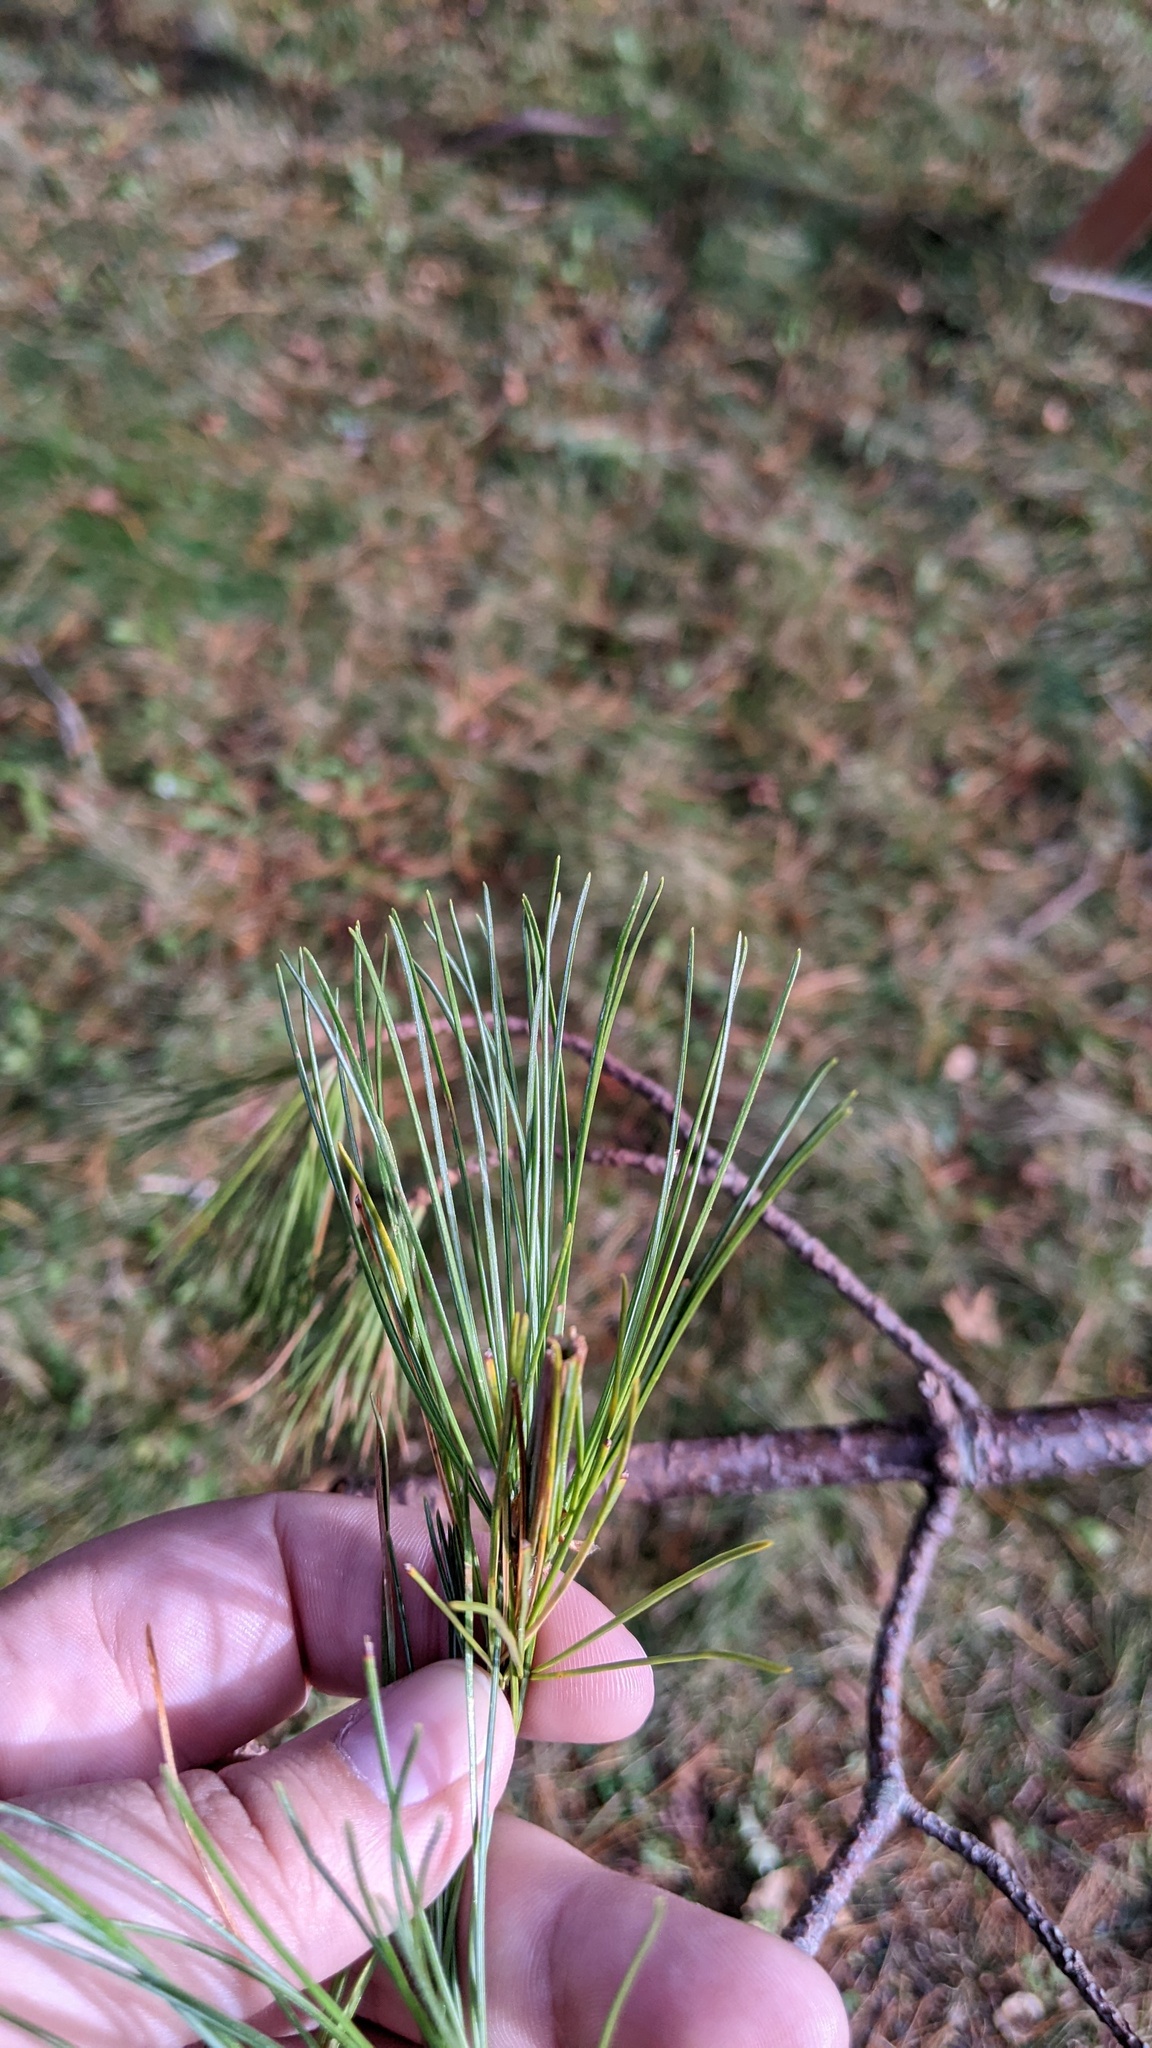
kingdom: Animalia
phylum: Arthropoda
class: Insecta
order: Lepidoptera
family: Tortricidae
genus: Argyrotaenia
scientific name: Argyrotaenia pinatubana
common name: Pine tube moth
